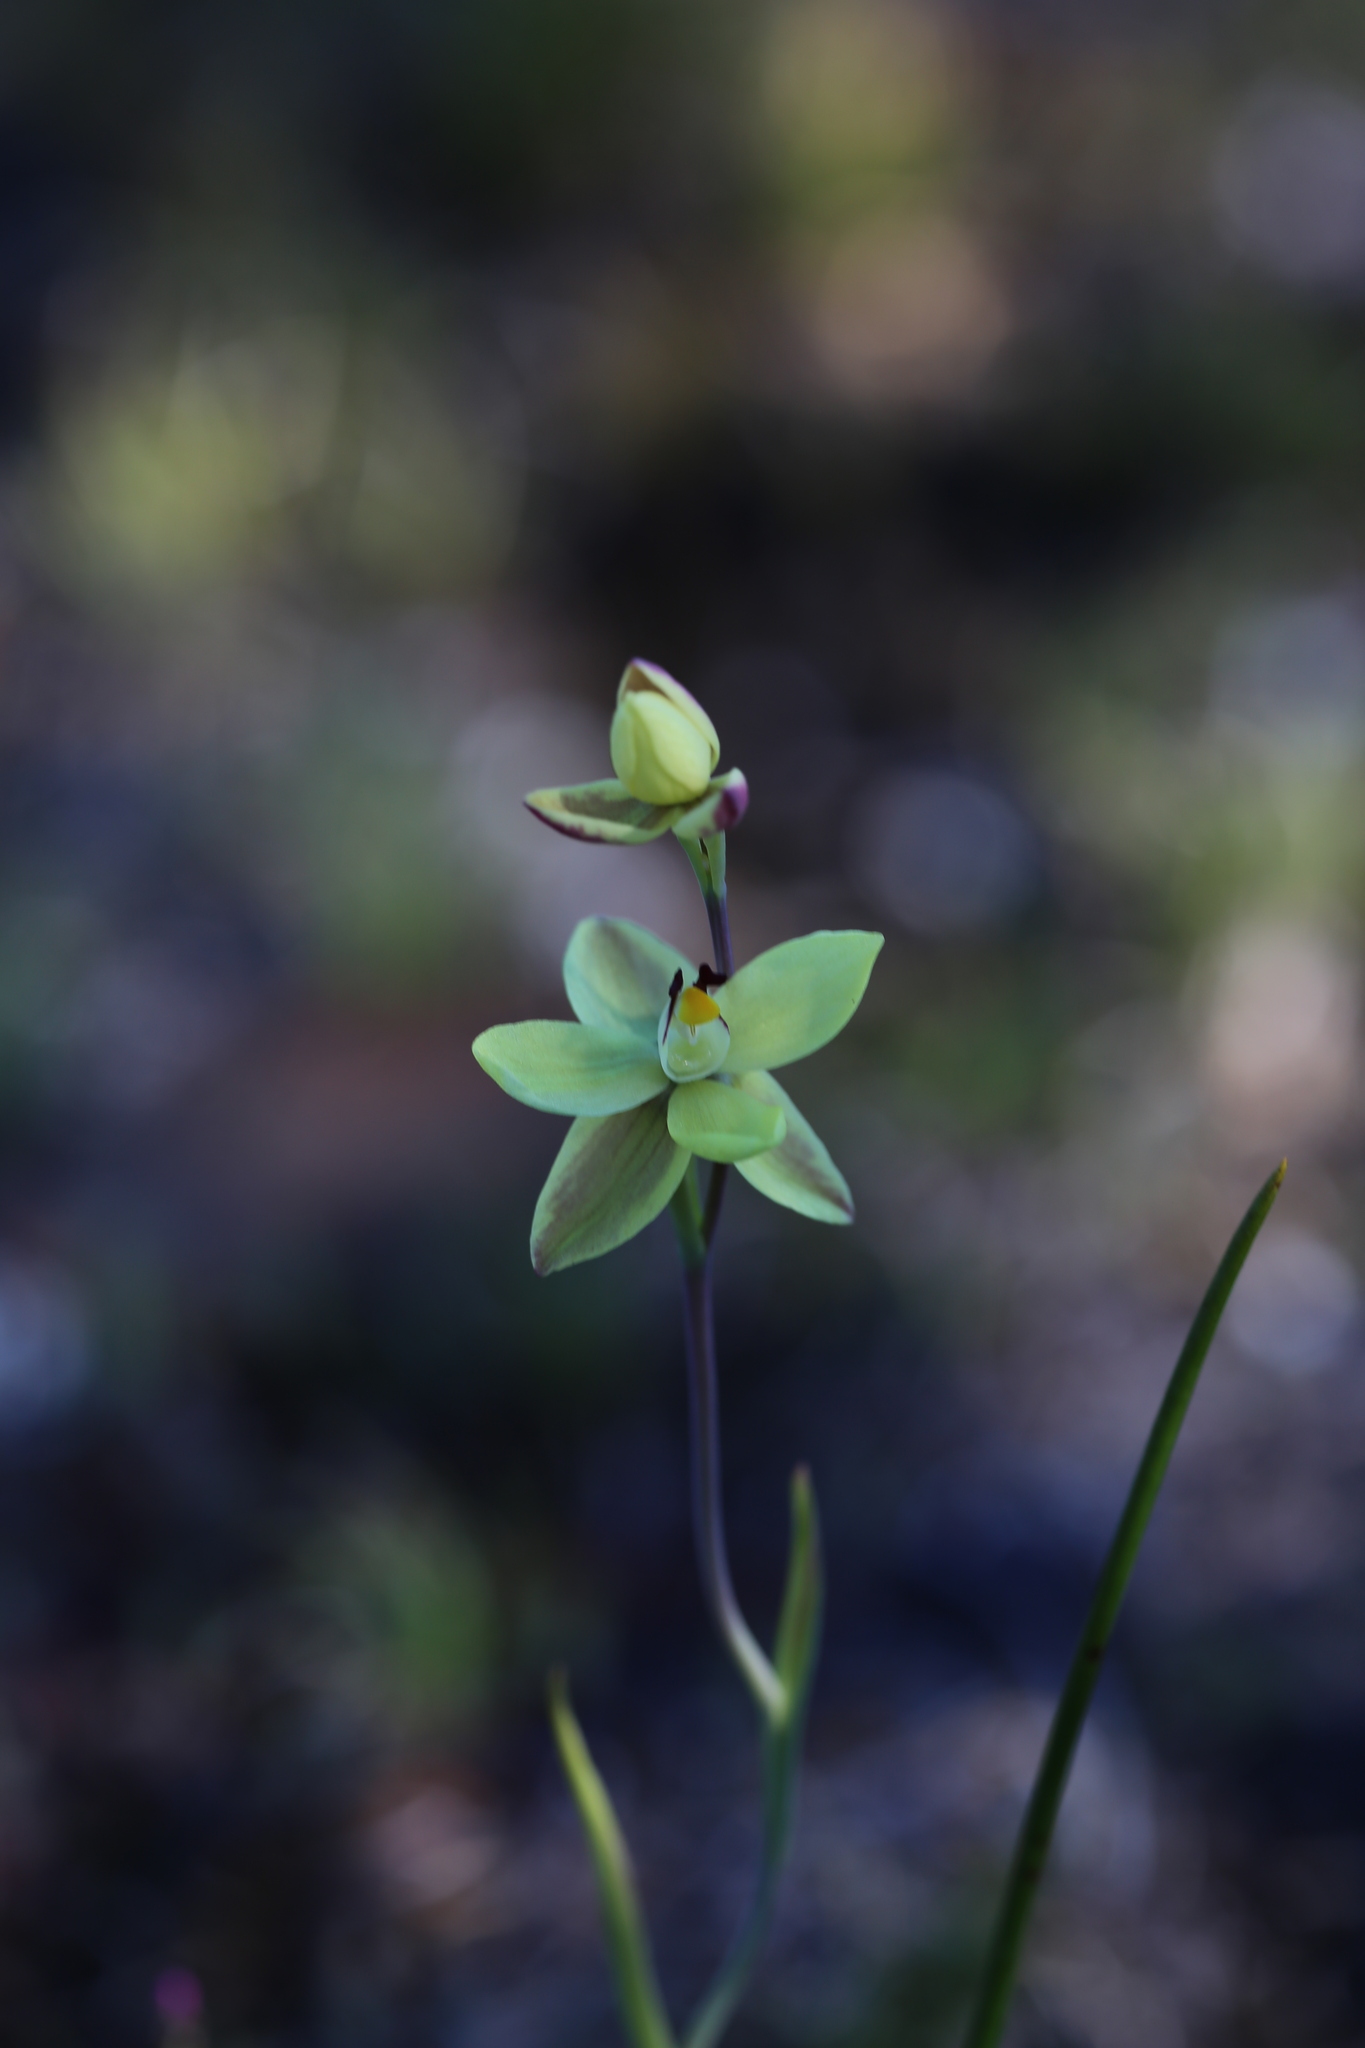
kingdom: Plantae
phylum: Tracheophyta
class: Liliopsida
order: Asparagales
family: Orchidaceae
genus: Thelymitra
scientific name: Thelymitra antennifera
